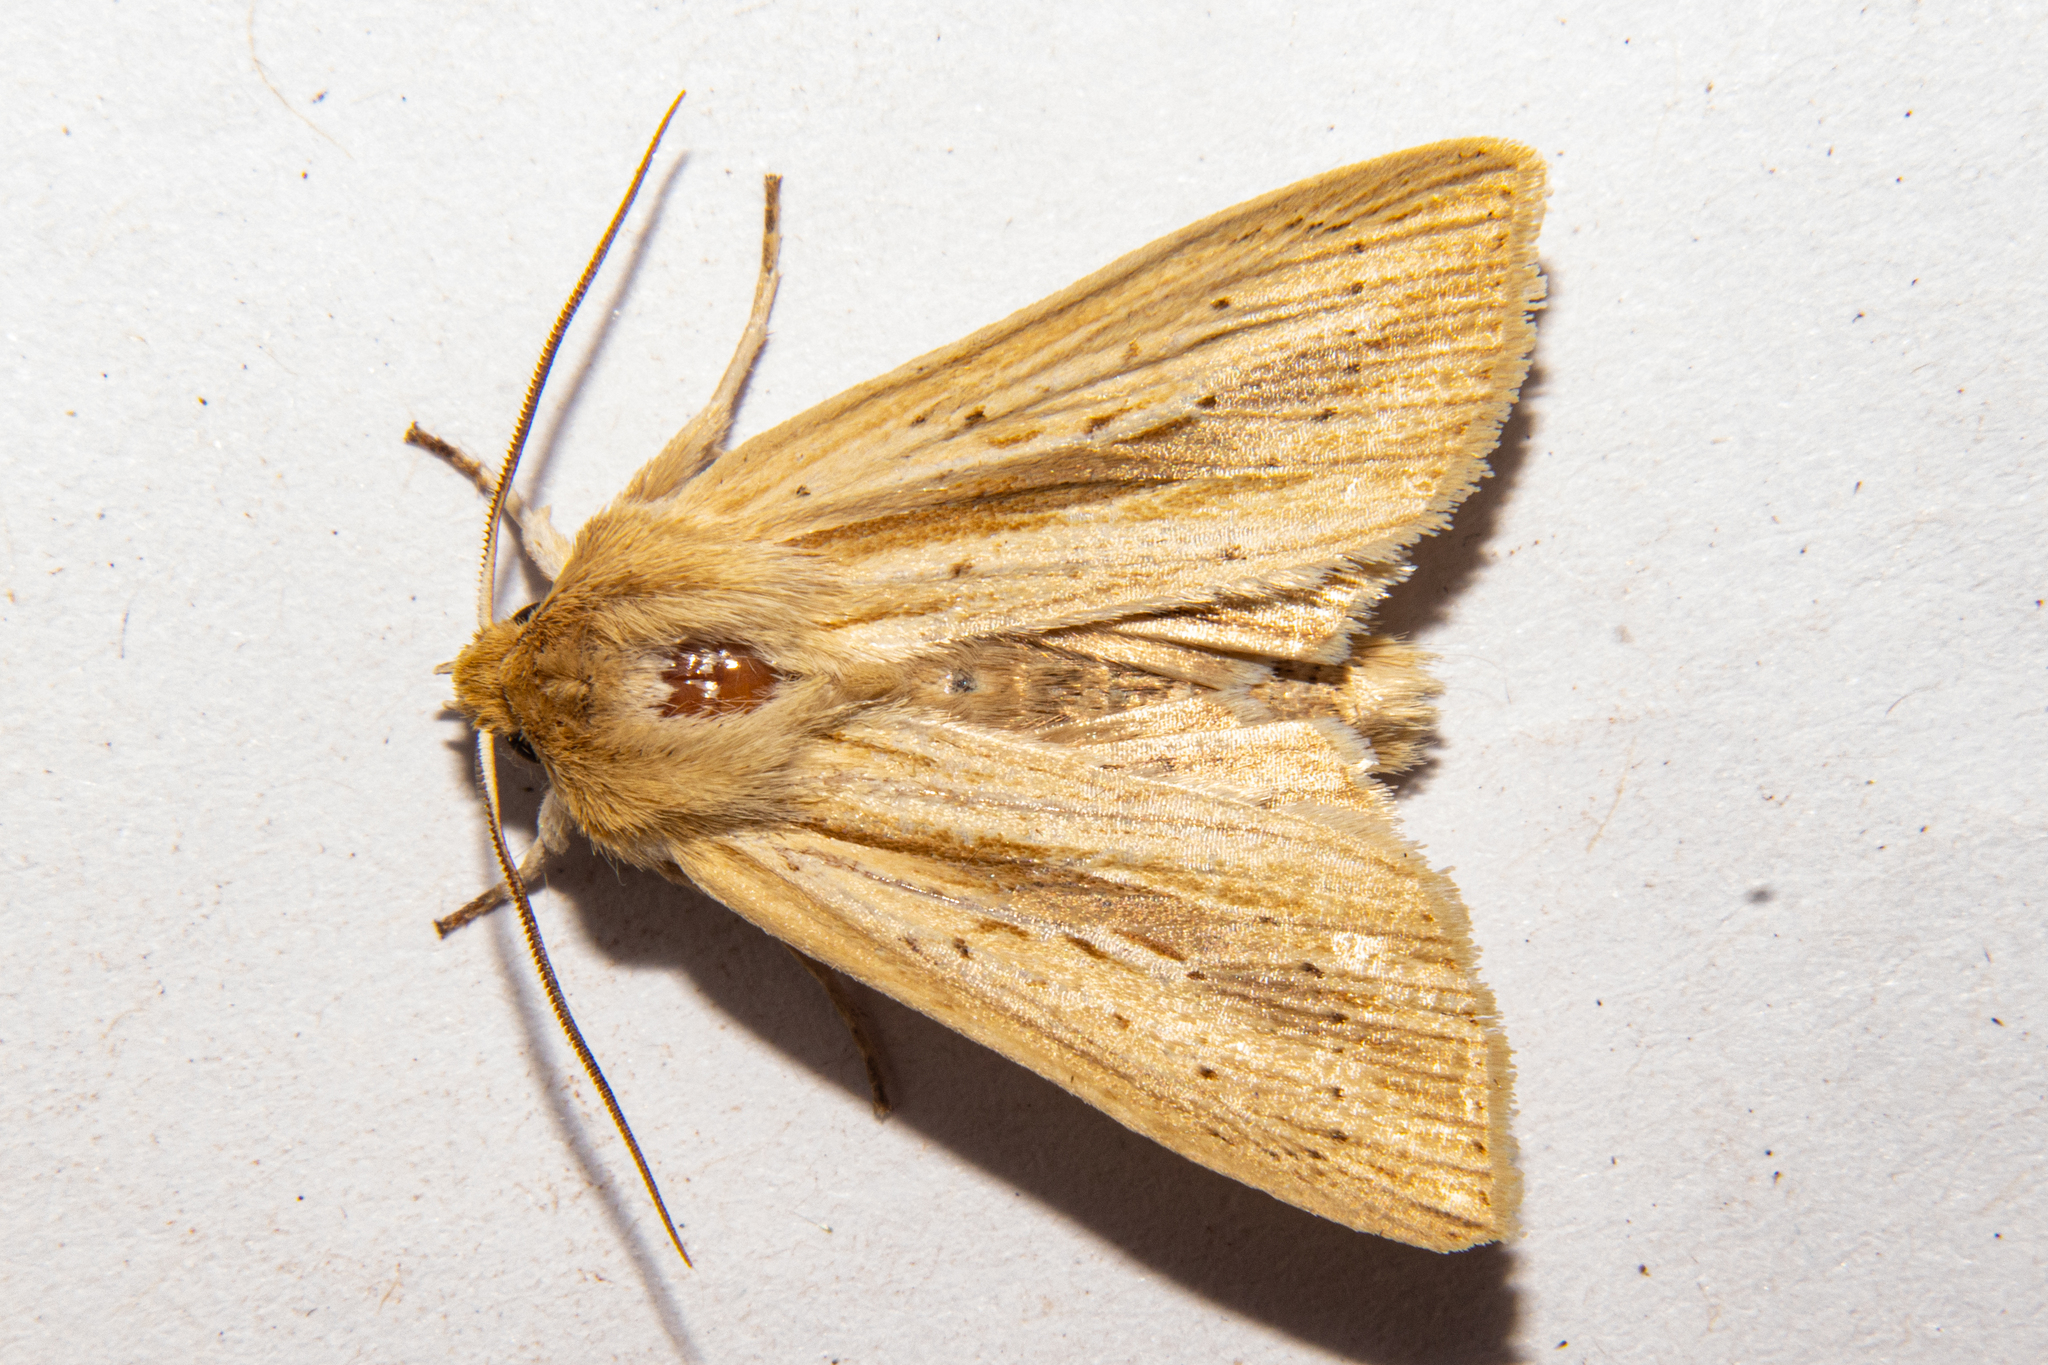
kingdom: Animalia
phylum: Arthropoda
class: Insecta
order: Lepidoptera
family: Noctuidae
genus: Ichneutica
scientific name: Ichneutica semivittata
